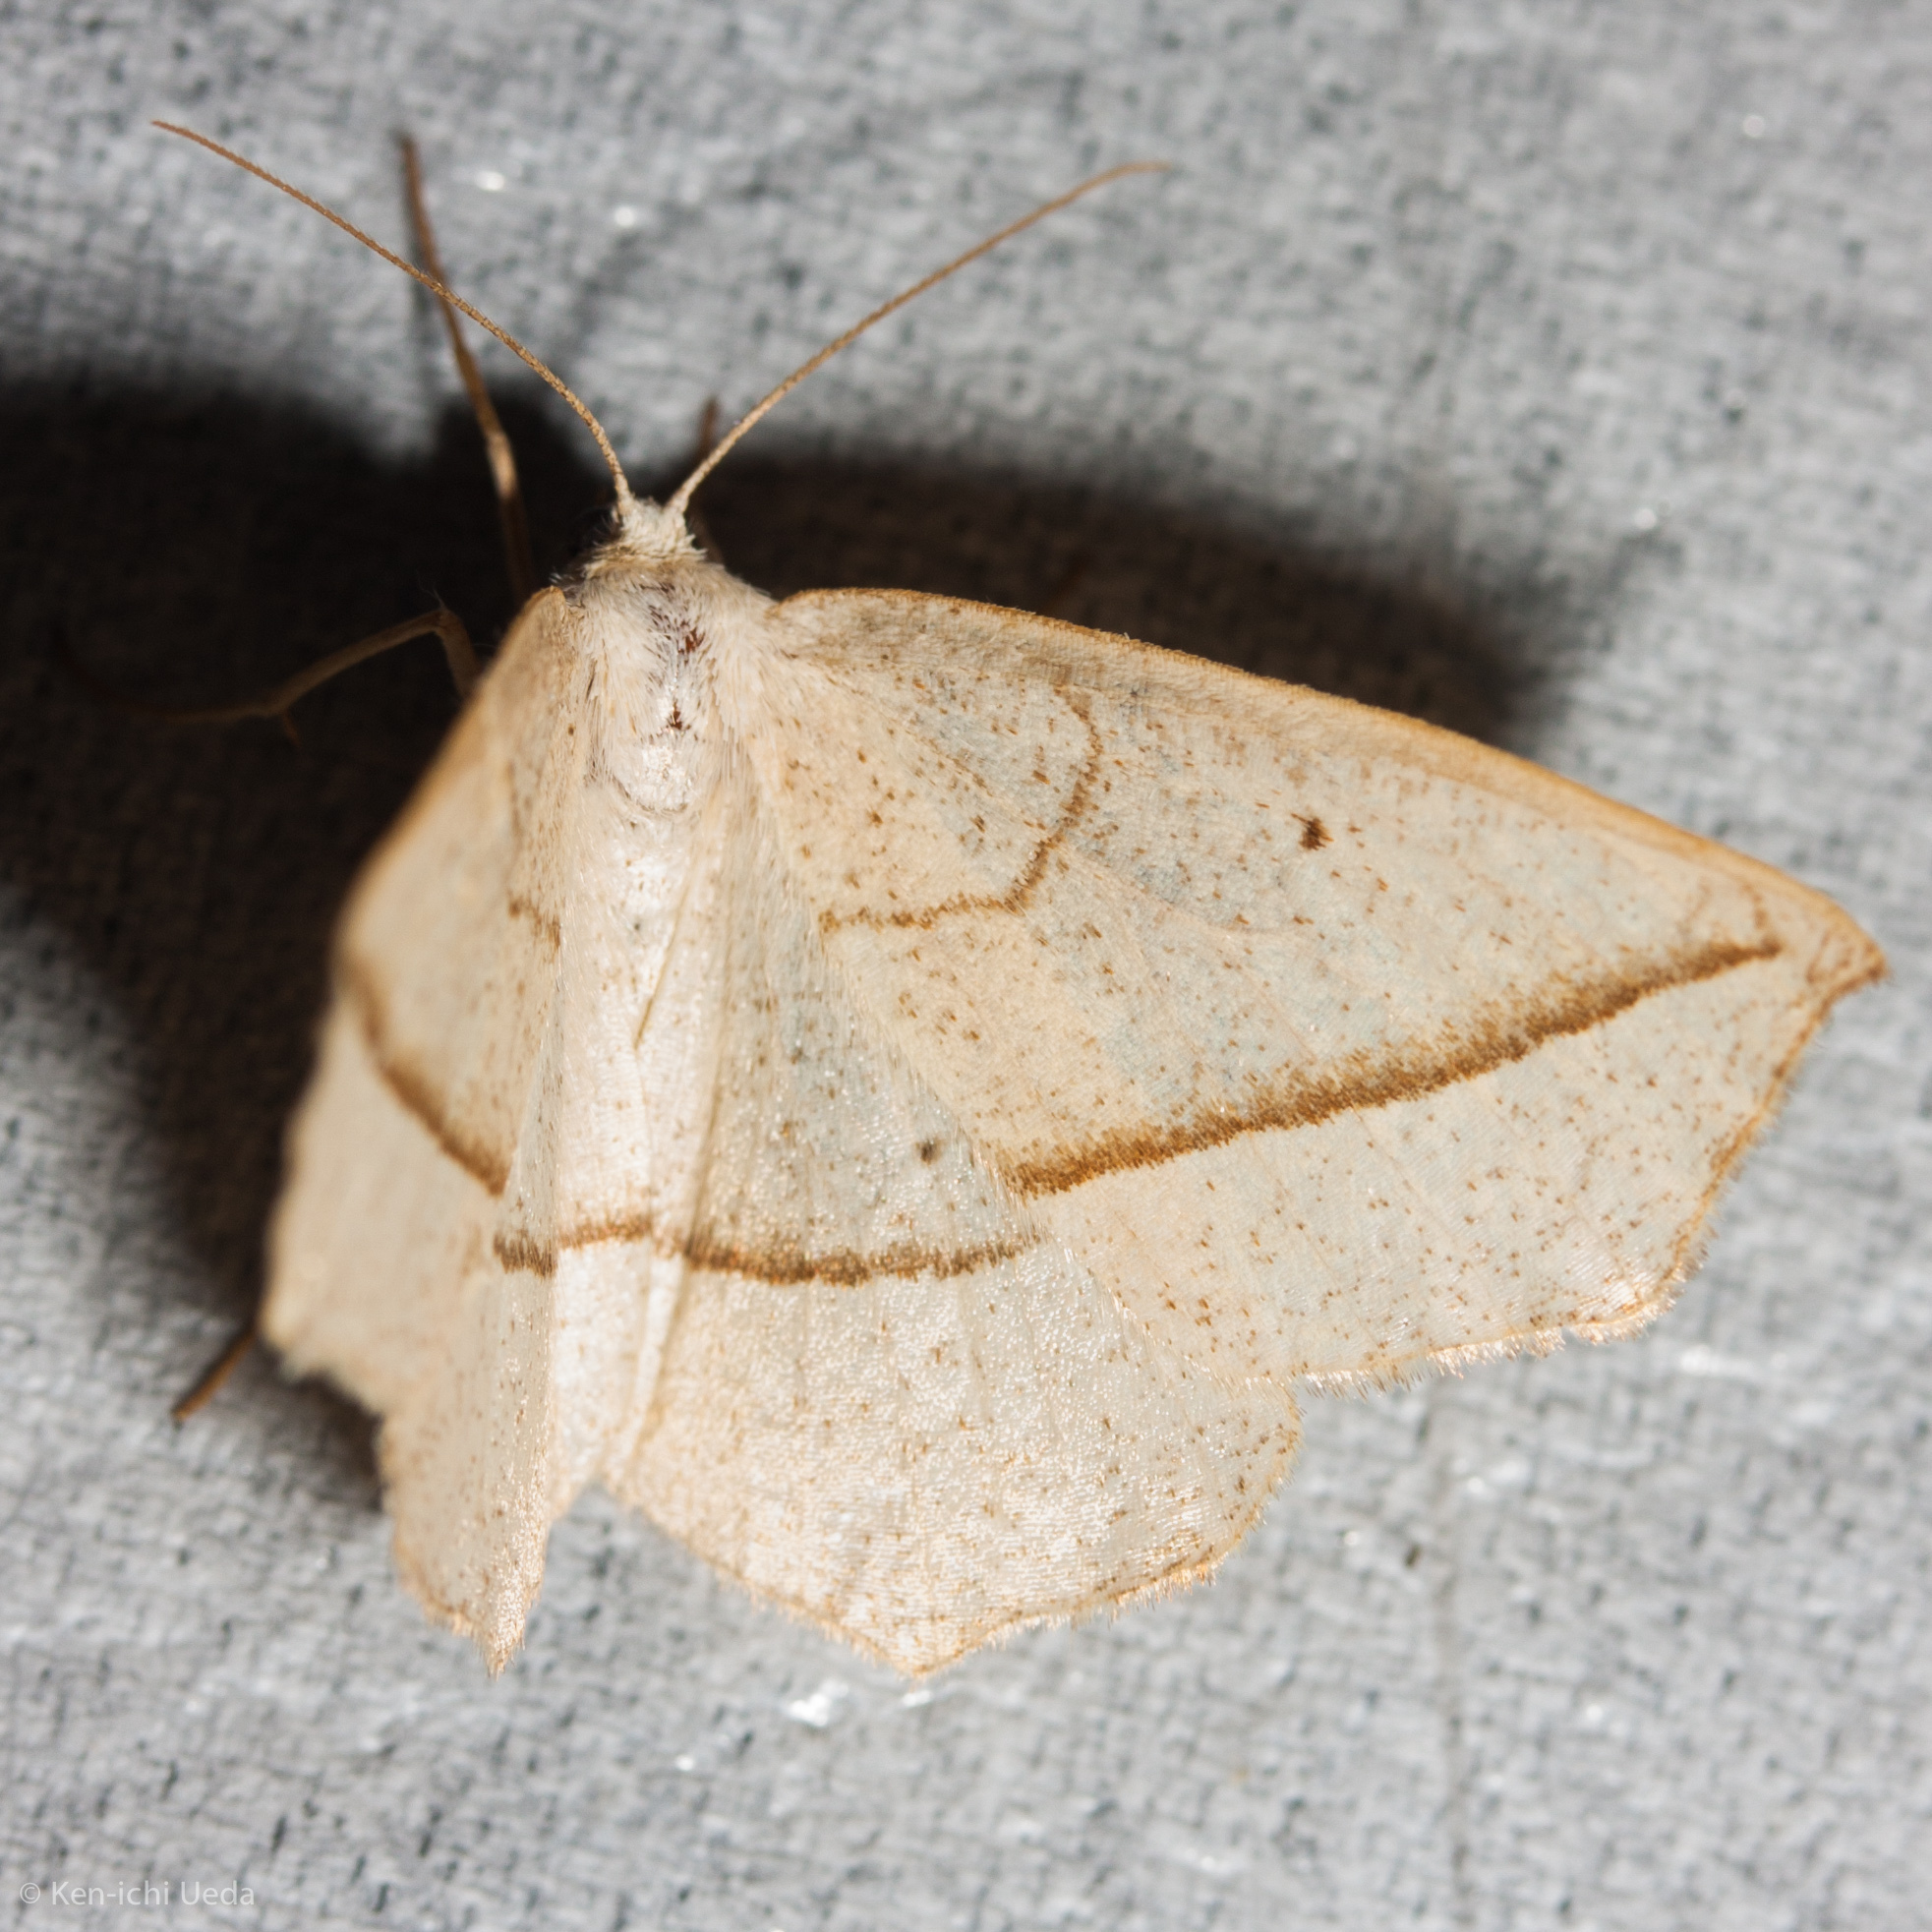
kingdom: Animalia
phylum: Arthropoda
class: Insecta
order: Lepidoptera
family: Geometridae
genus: Eusarca
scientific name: Eusarca confusaria
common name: Confused eusarca
